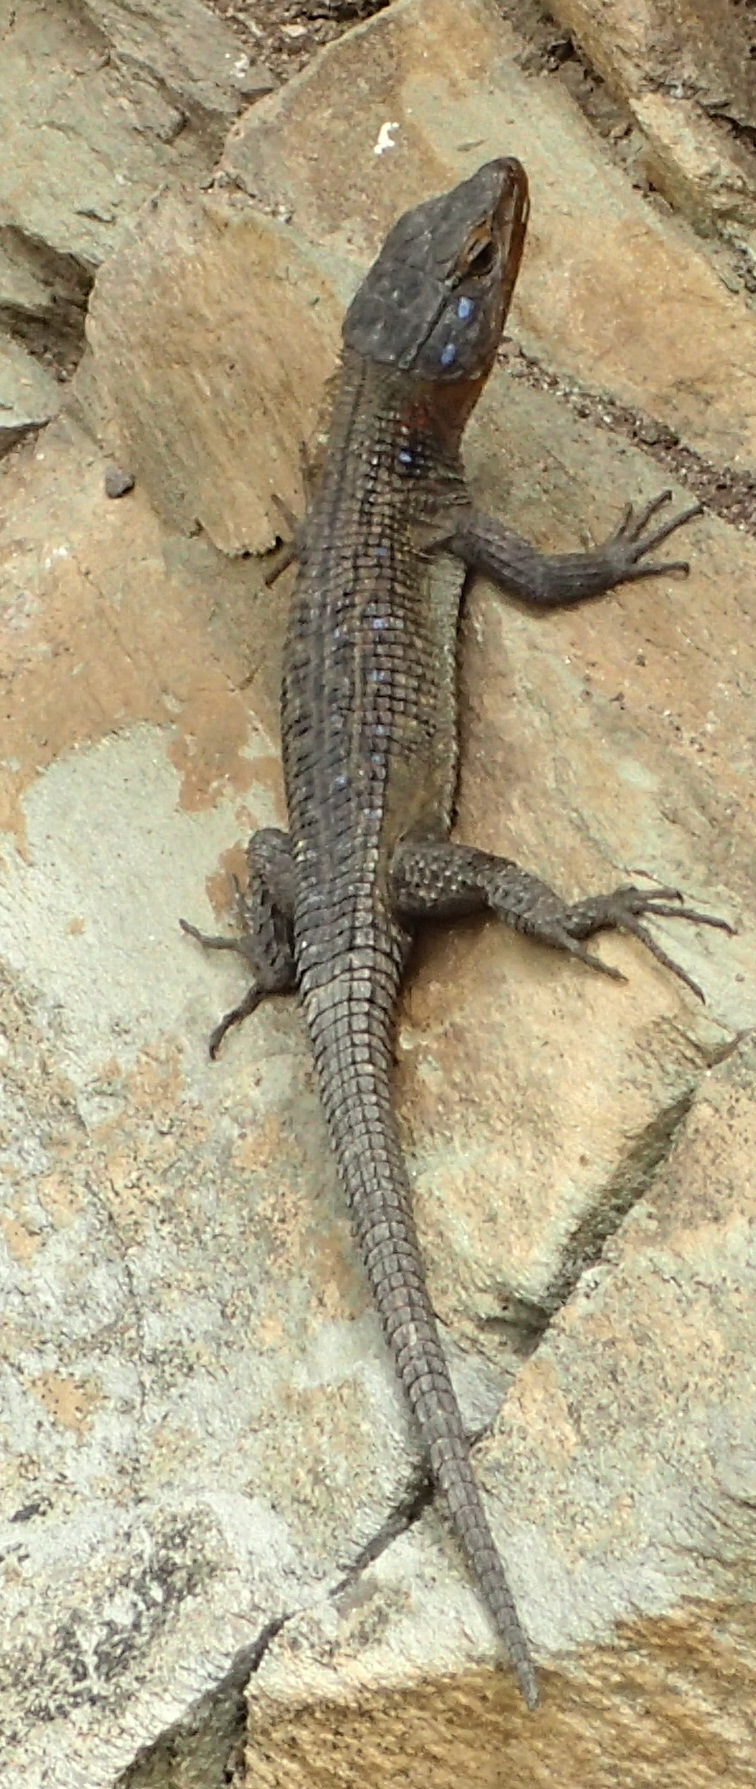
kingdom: Animalia
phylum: Chordata
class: Squamata
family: Cordylidae
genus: Ninurta
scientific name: Ninurta coeruleopunctatus
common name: Blue-spotted girdled lizard
